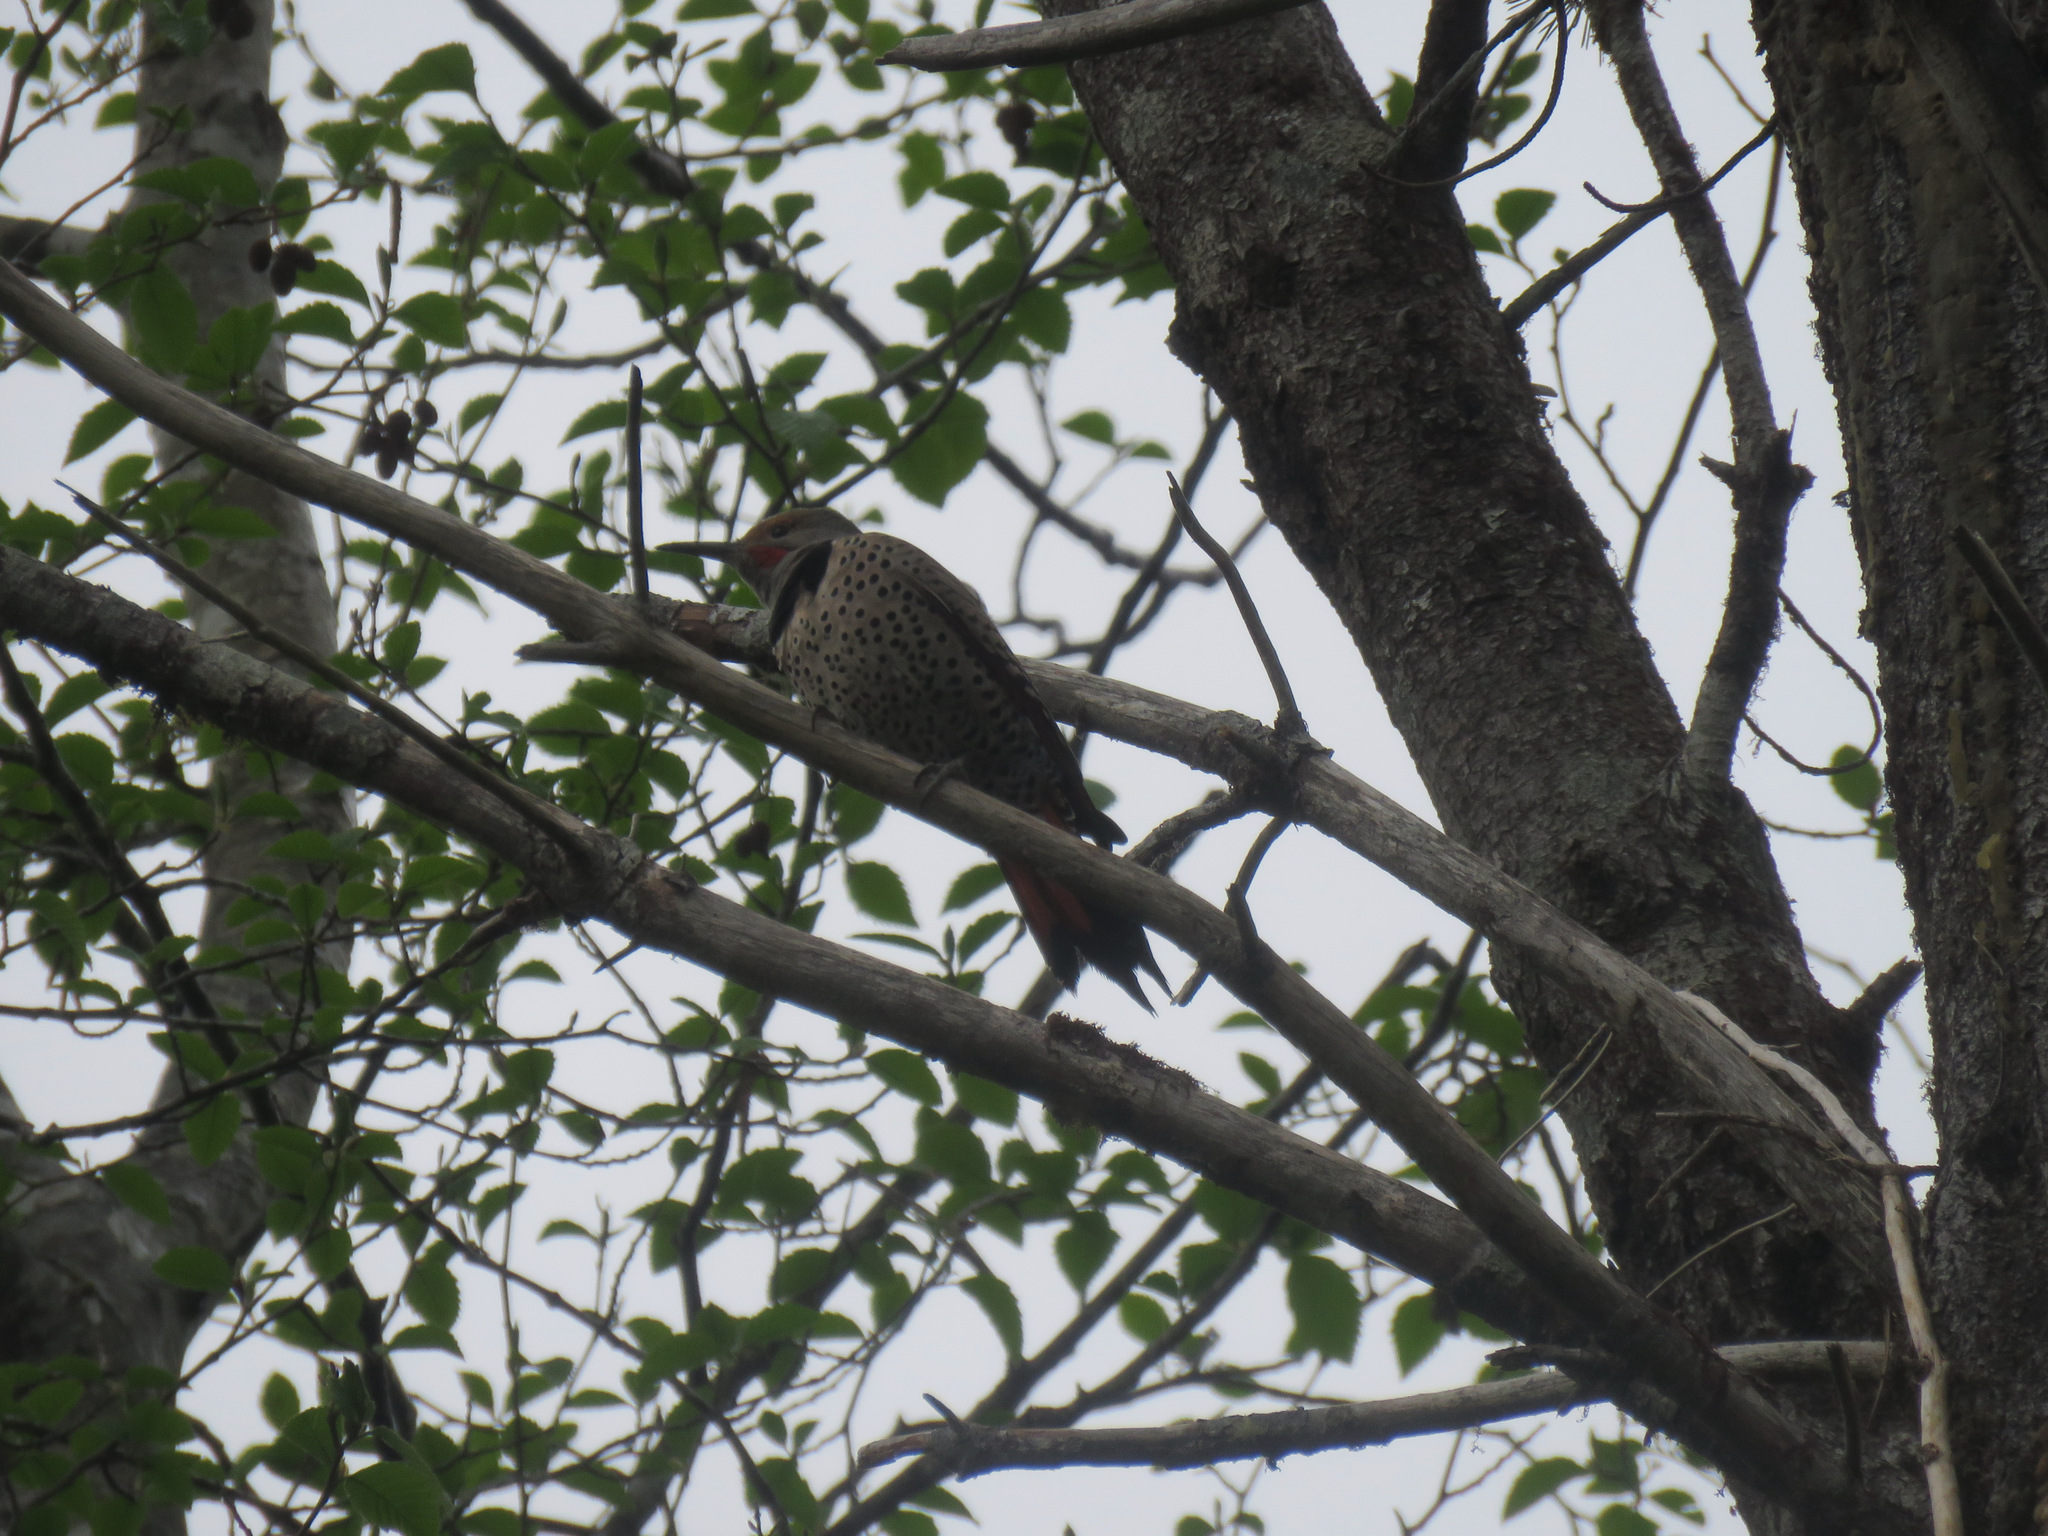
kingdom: Animalia
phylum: Chordata
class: Aves
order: Piciformes
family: Picidae
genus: Colaptes
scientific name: Colaptes auratus
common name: Northern flicker
